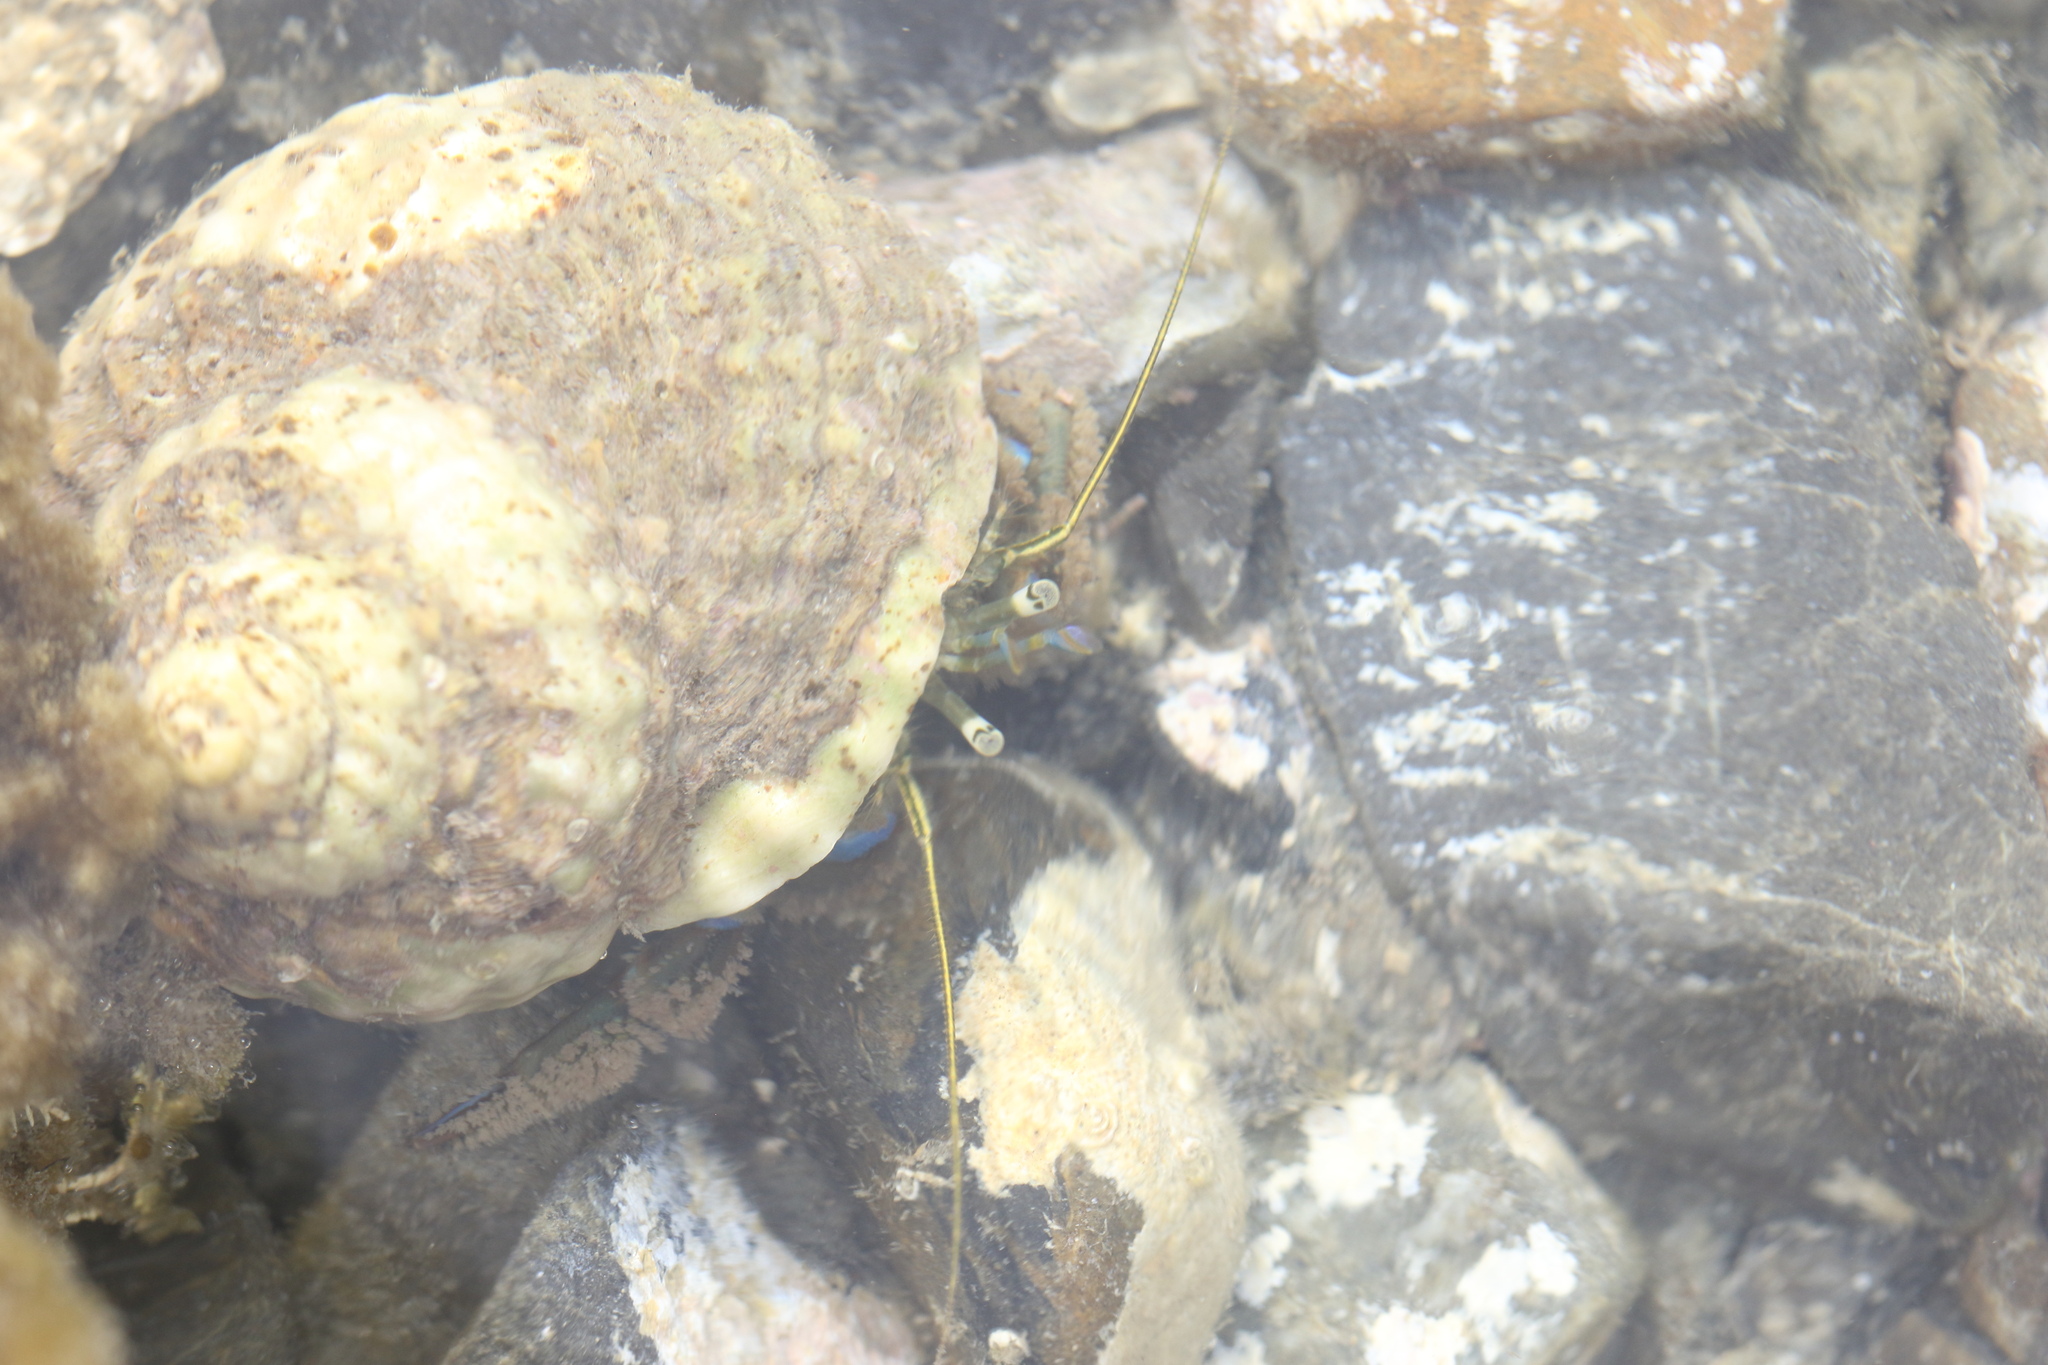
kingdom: Animalia
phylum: Arthropoda
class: Malacostraca
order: Decapoda
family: Paguridae
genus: Pagurus
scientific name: Pagurus novizealandiae
